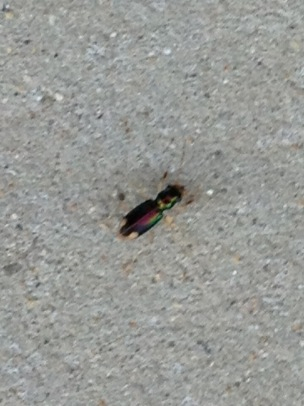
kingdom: Animalia
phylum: Arthropoda
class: Insecta
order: Coleoptera
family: Carabidae
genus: Tetracha
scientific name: Tetracha carolina
